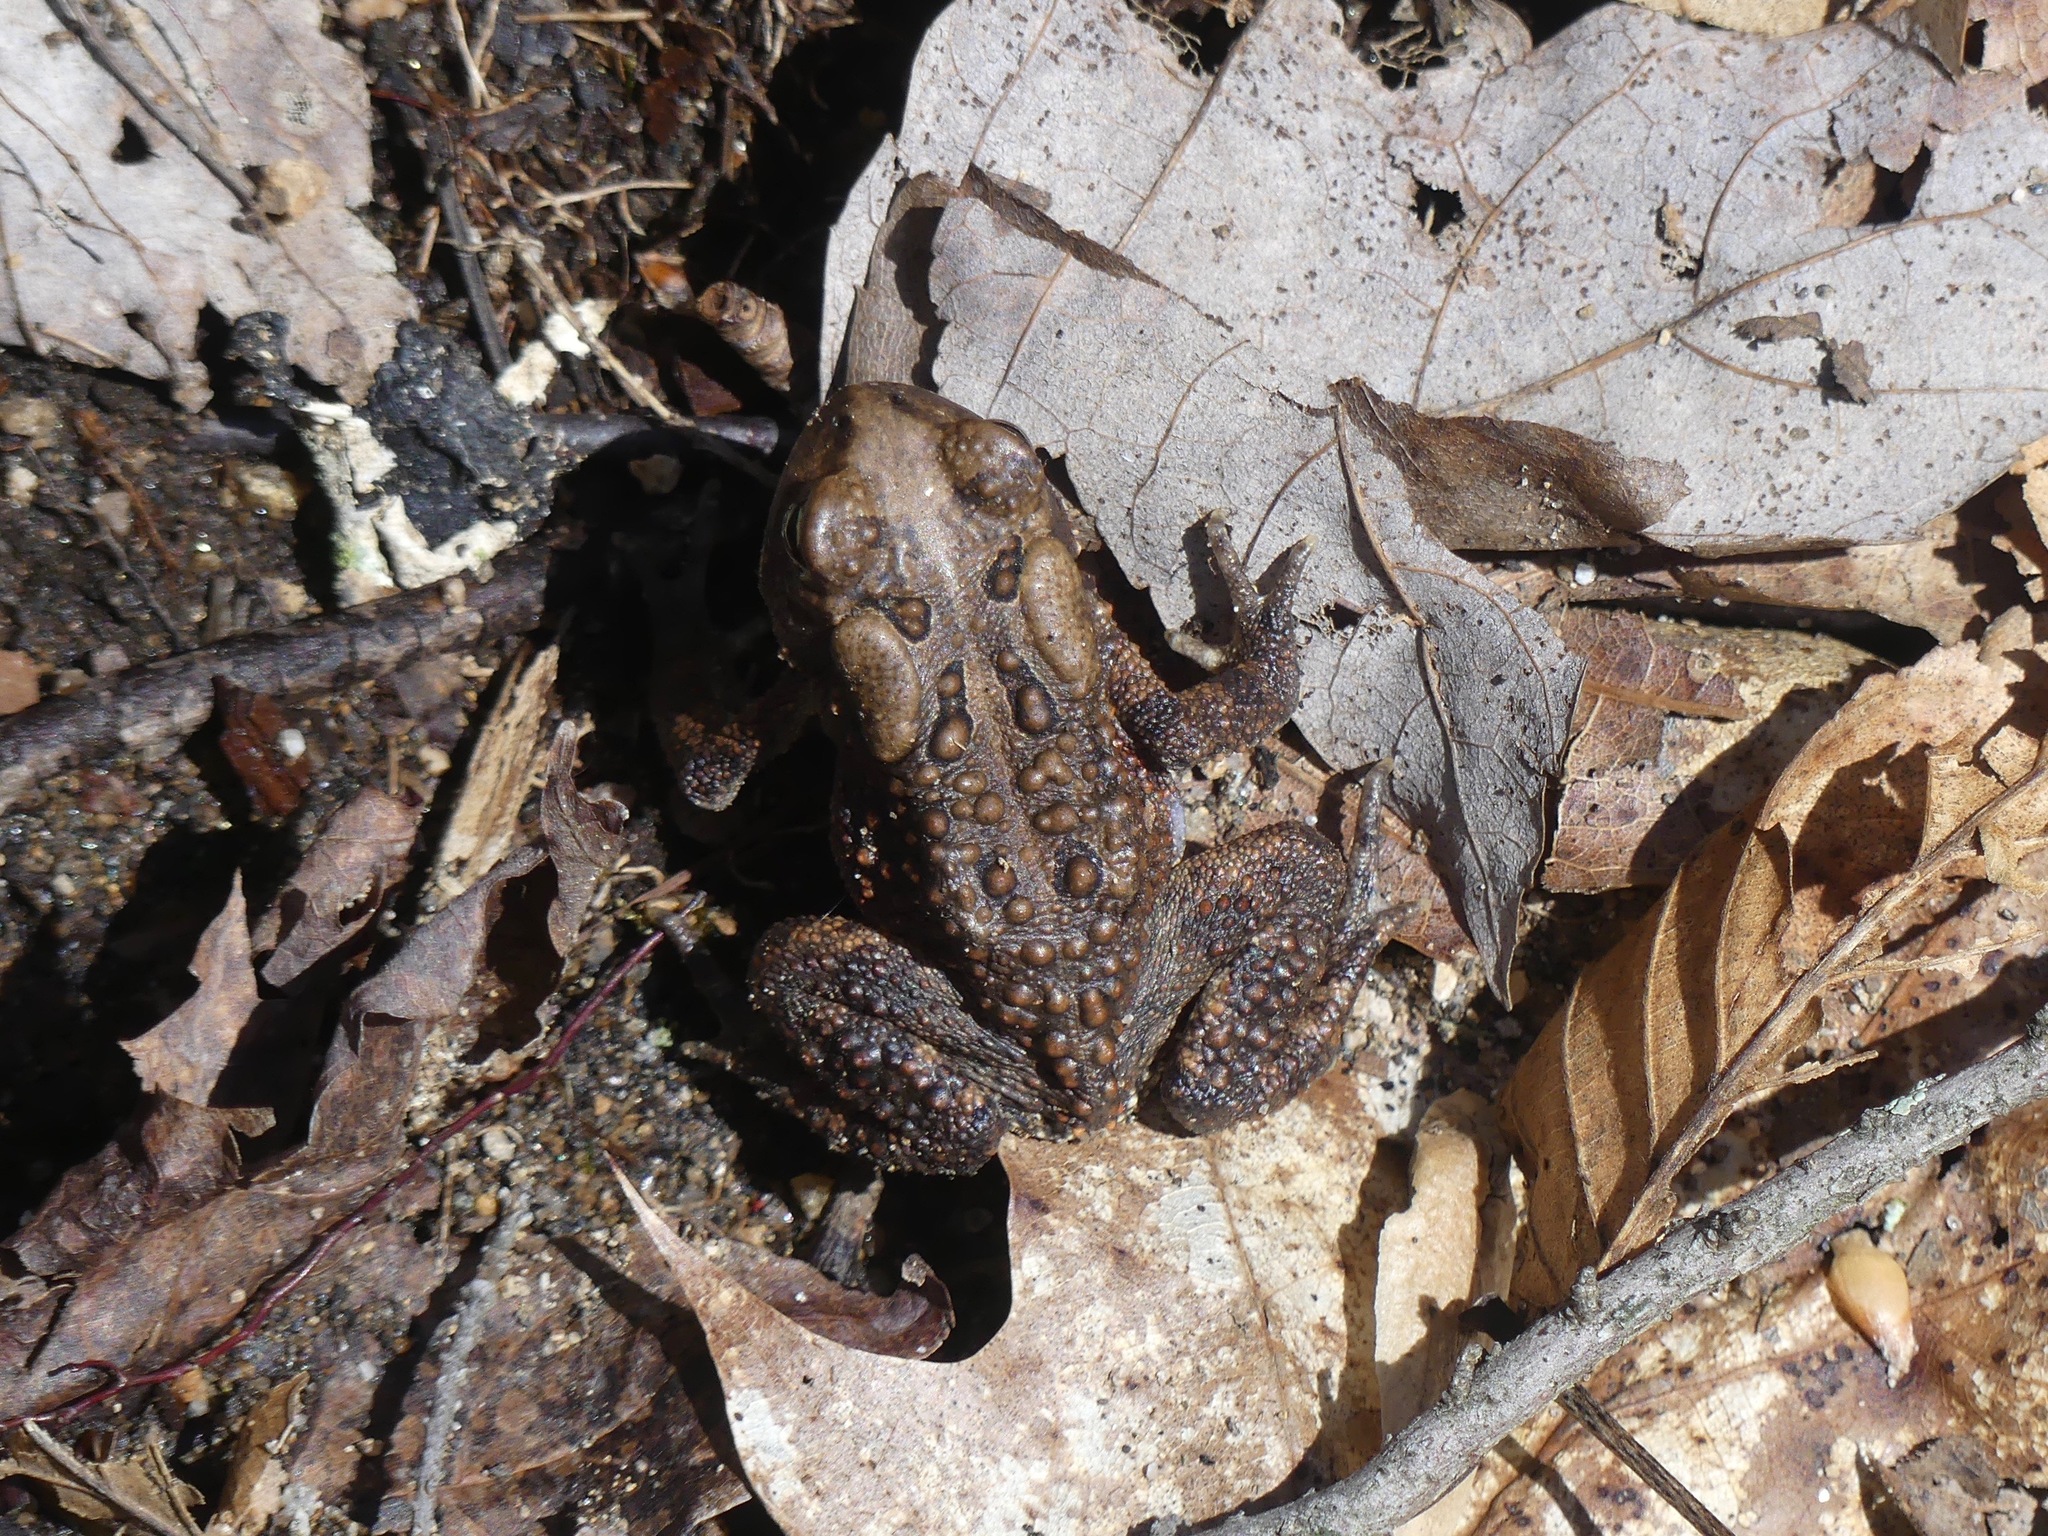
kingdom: Animalia
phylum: Chordata
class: Amphibia
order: Anura
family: Bufonidae
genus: Anaxyrus
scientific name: Anaxyrus americanus
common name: American toad
